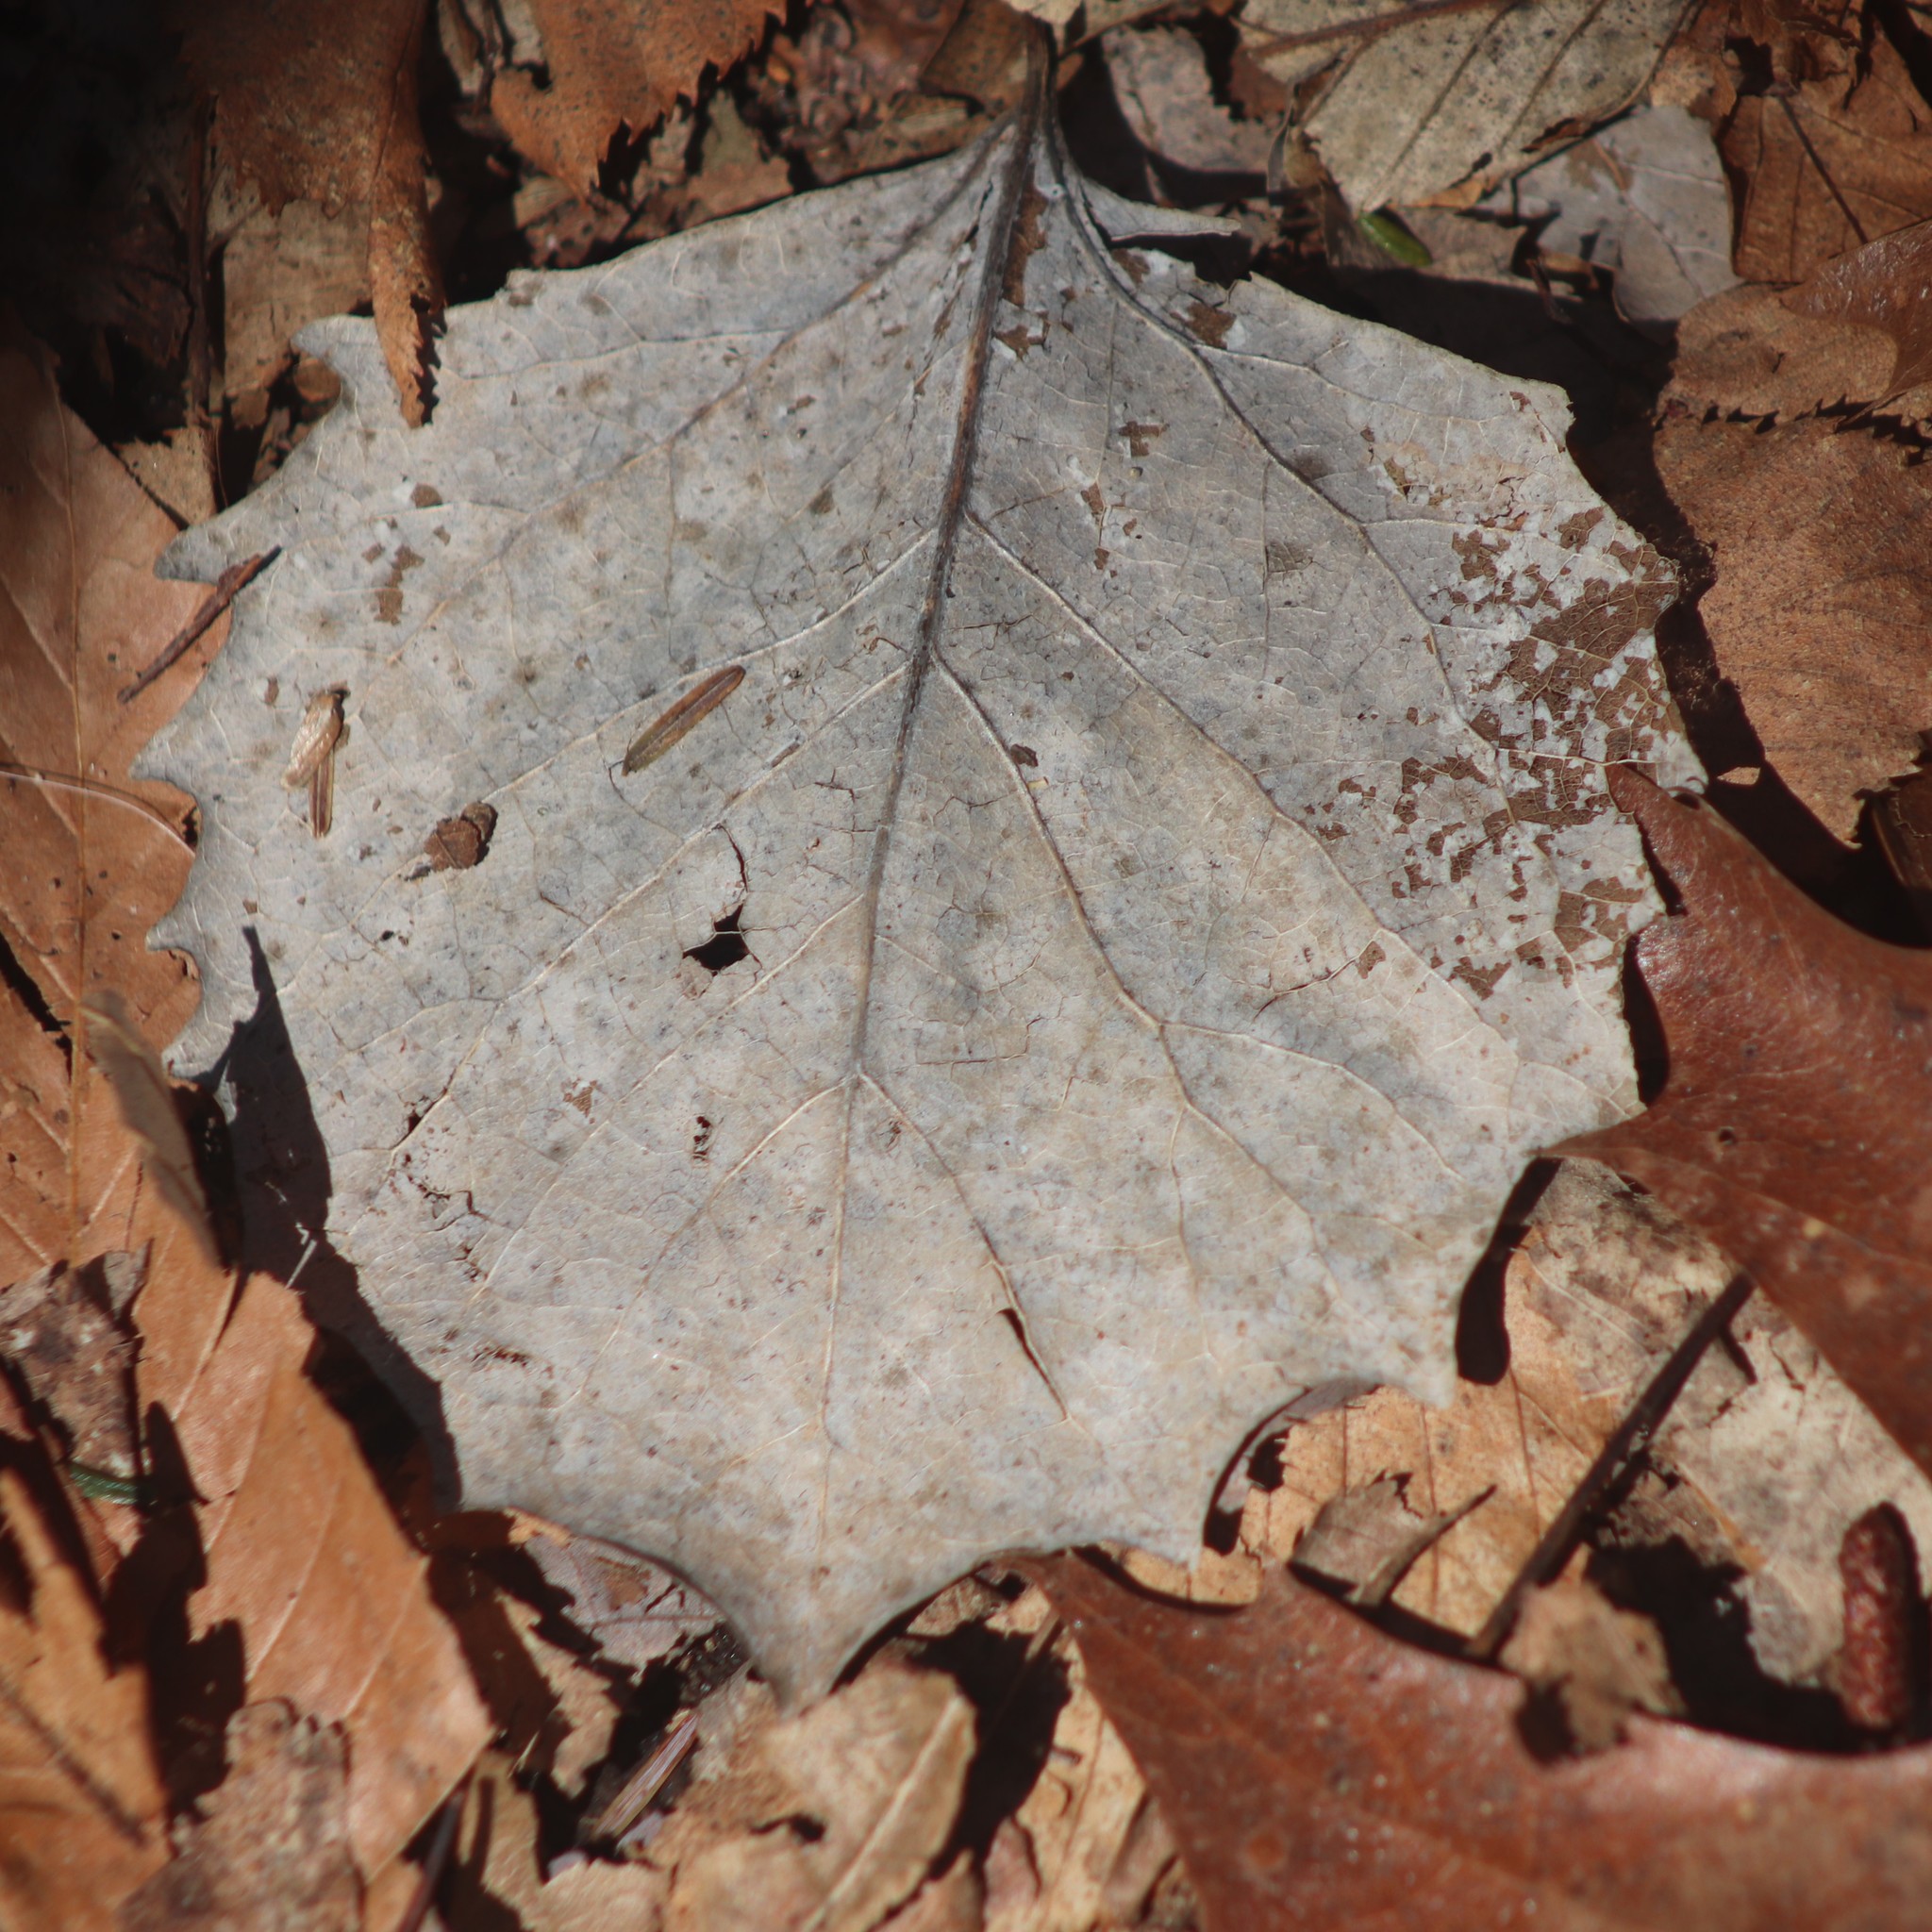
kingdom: Plantae
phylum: Tracheophyta
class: Magnoliopsida
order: Malpighiales
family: Salicaceae
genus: Populus
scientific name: Populus grandidentata
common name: Bigtooth aspen
